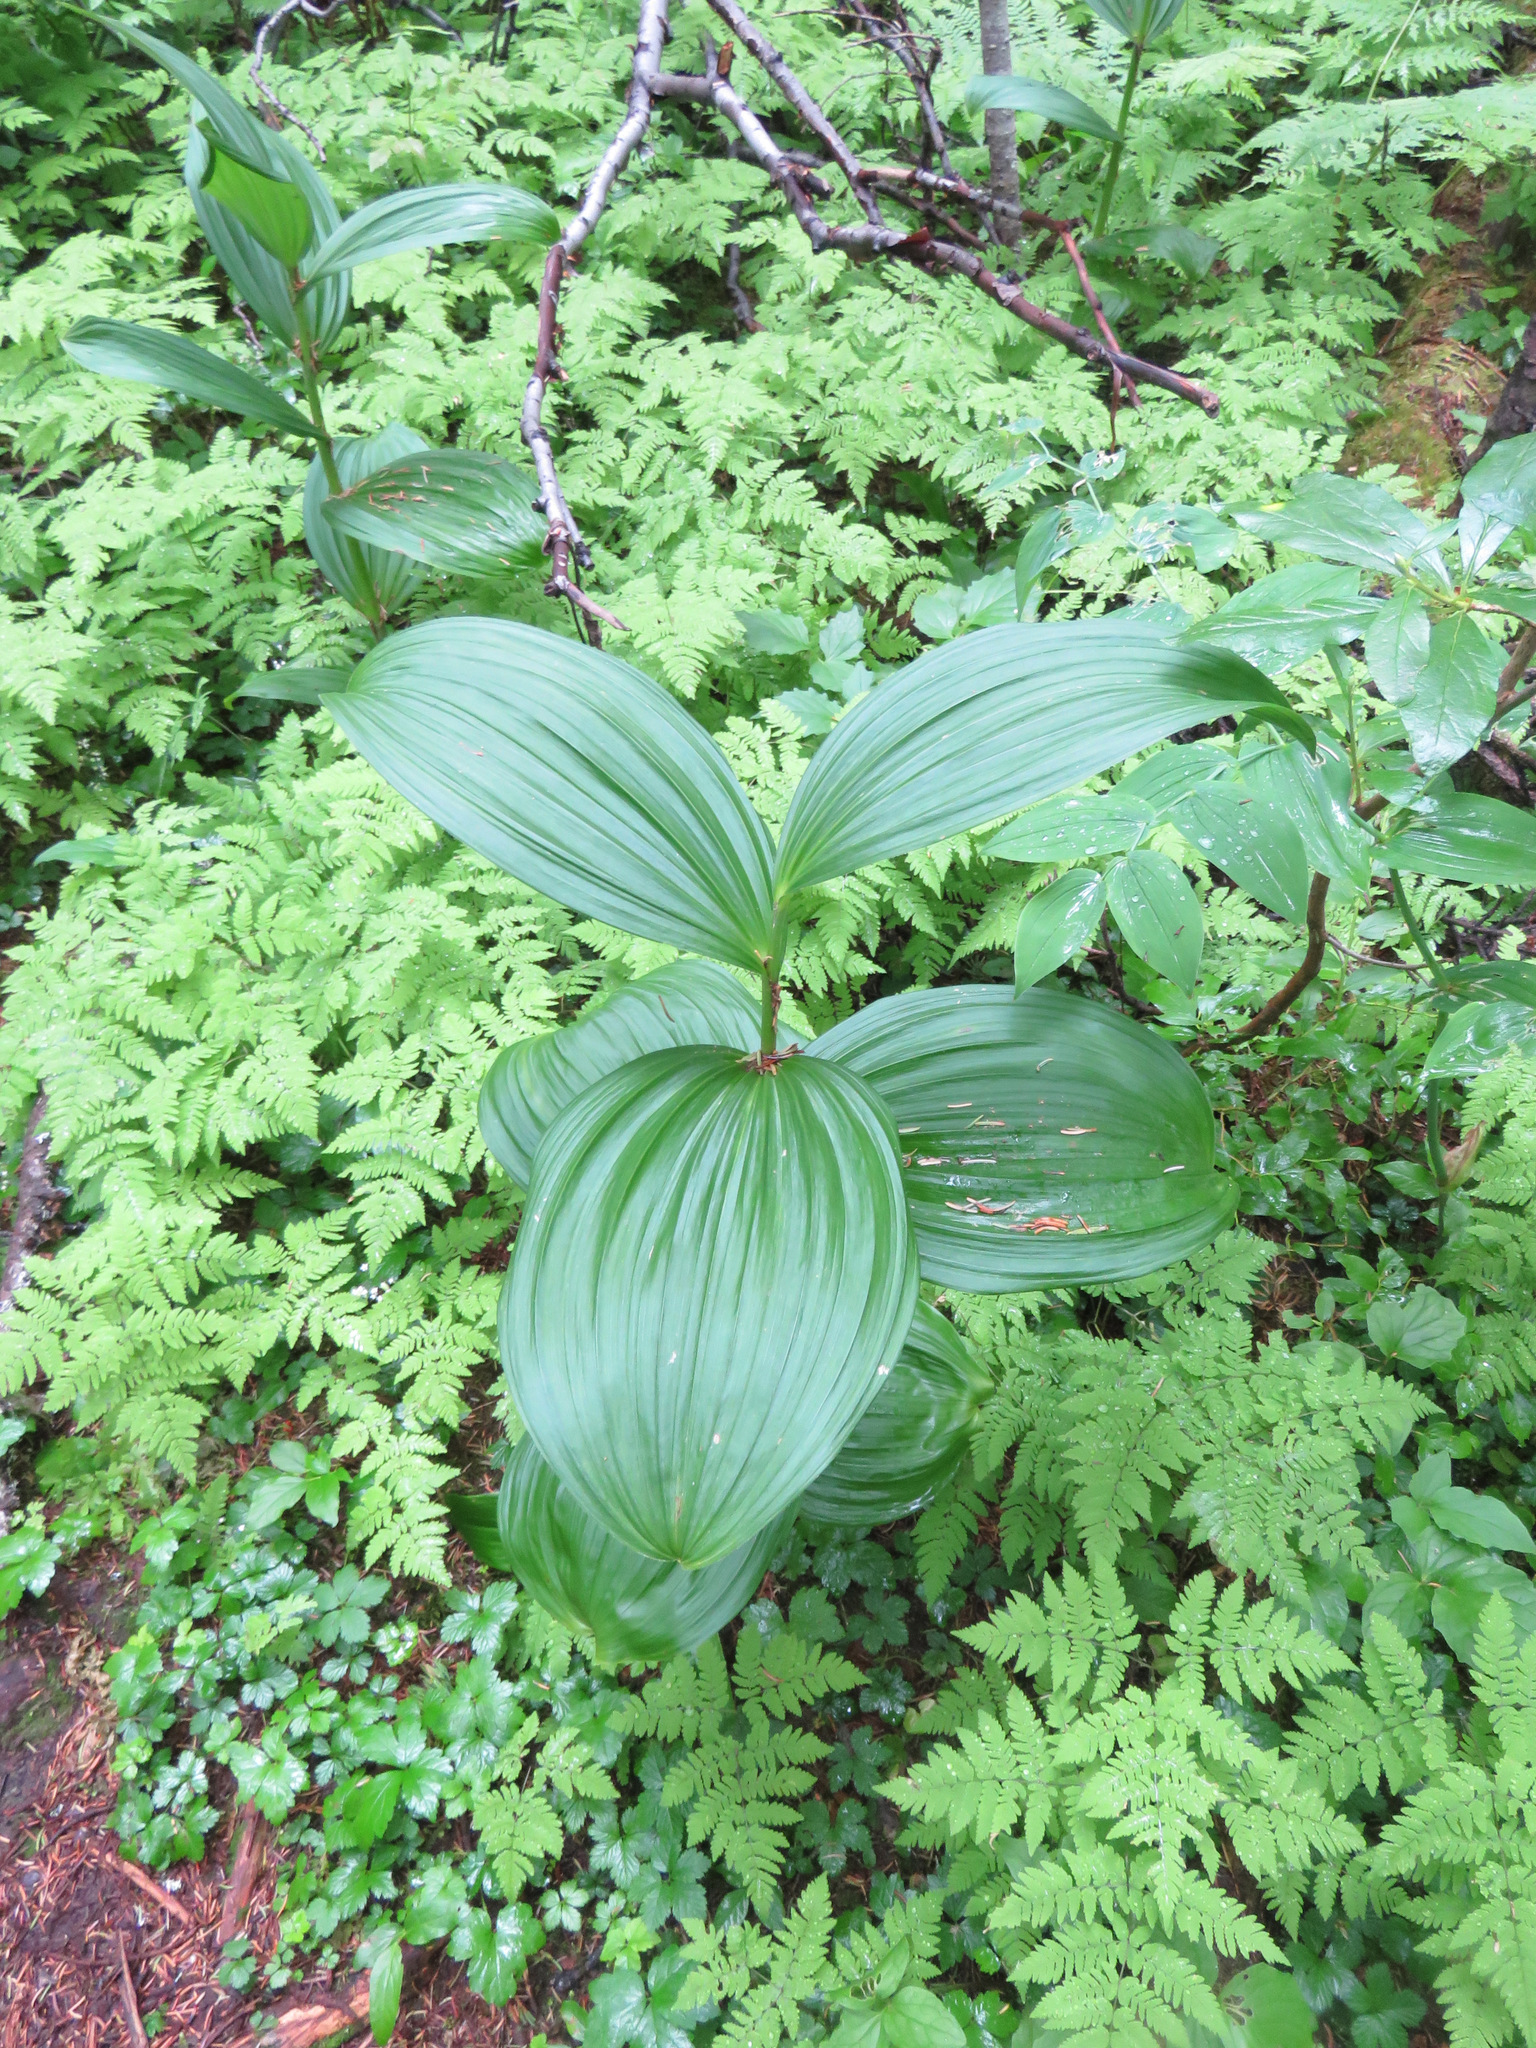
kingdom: Plantae
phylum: Tracheophyta
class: Liliopsida
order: Liliales
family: Melanthiaceae
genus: Veratrum
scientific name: Veratrum viride
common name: American false hellebore
